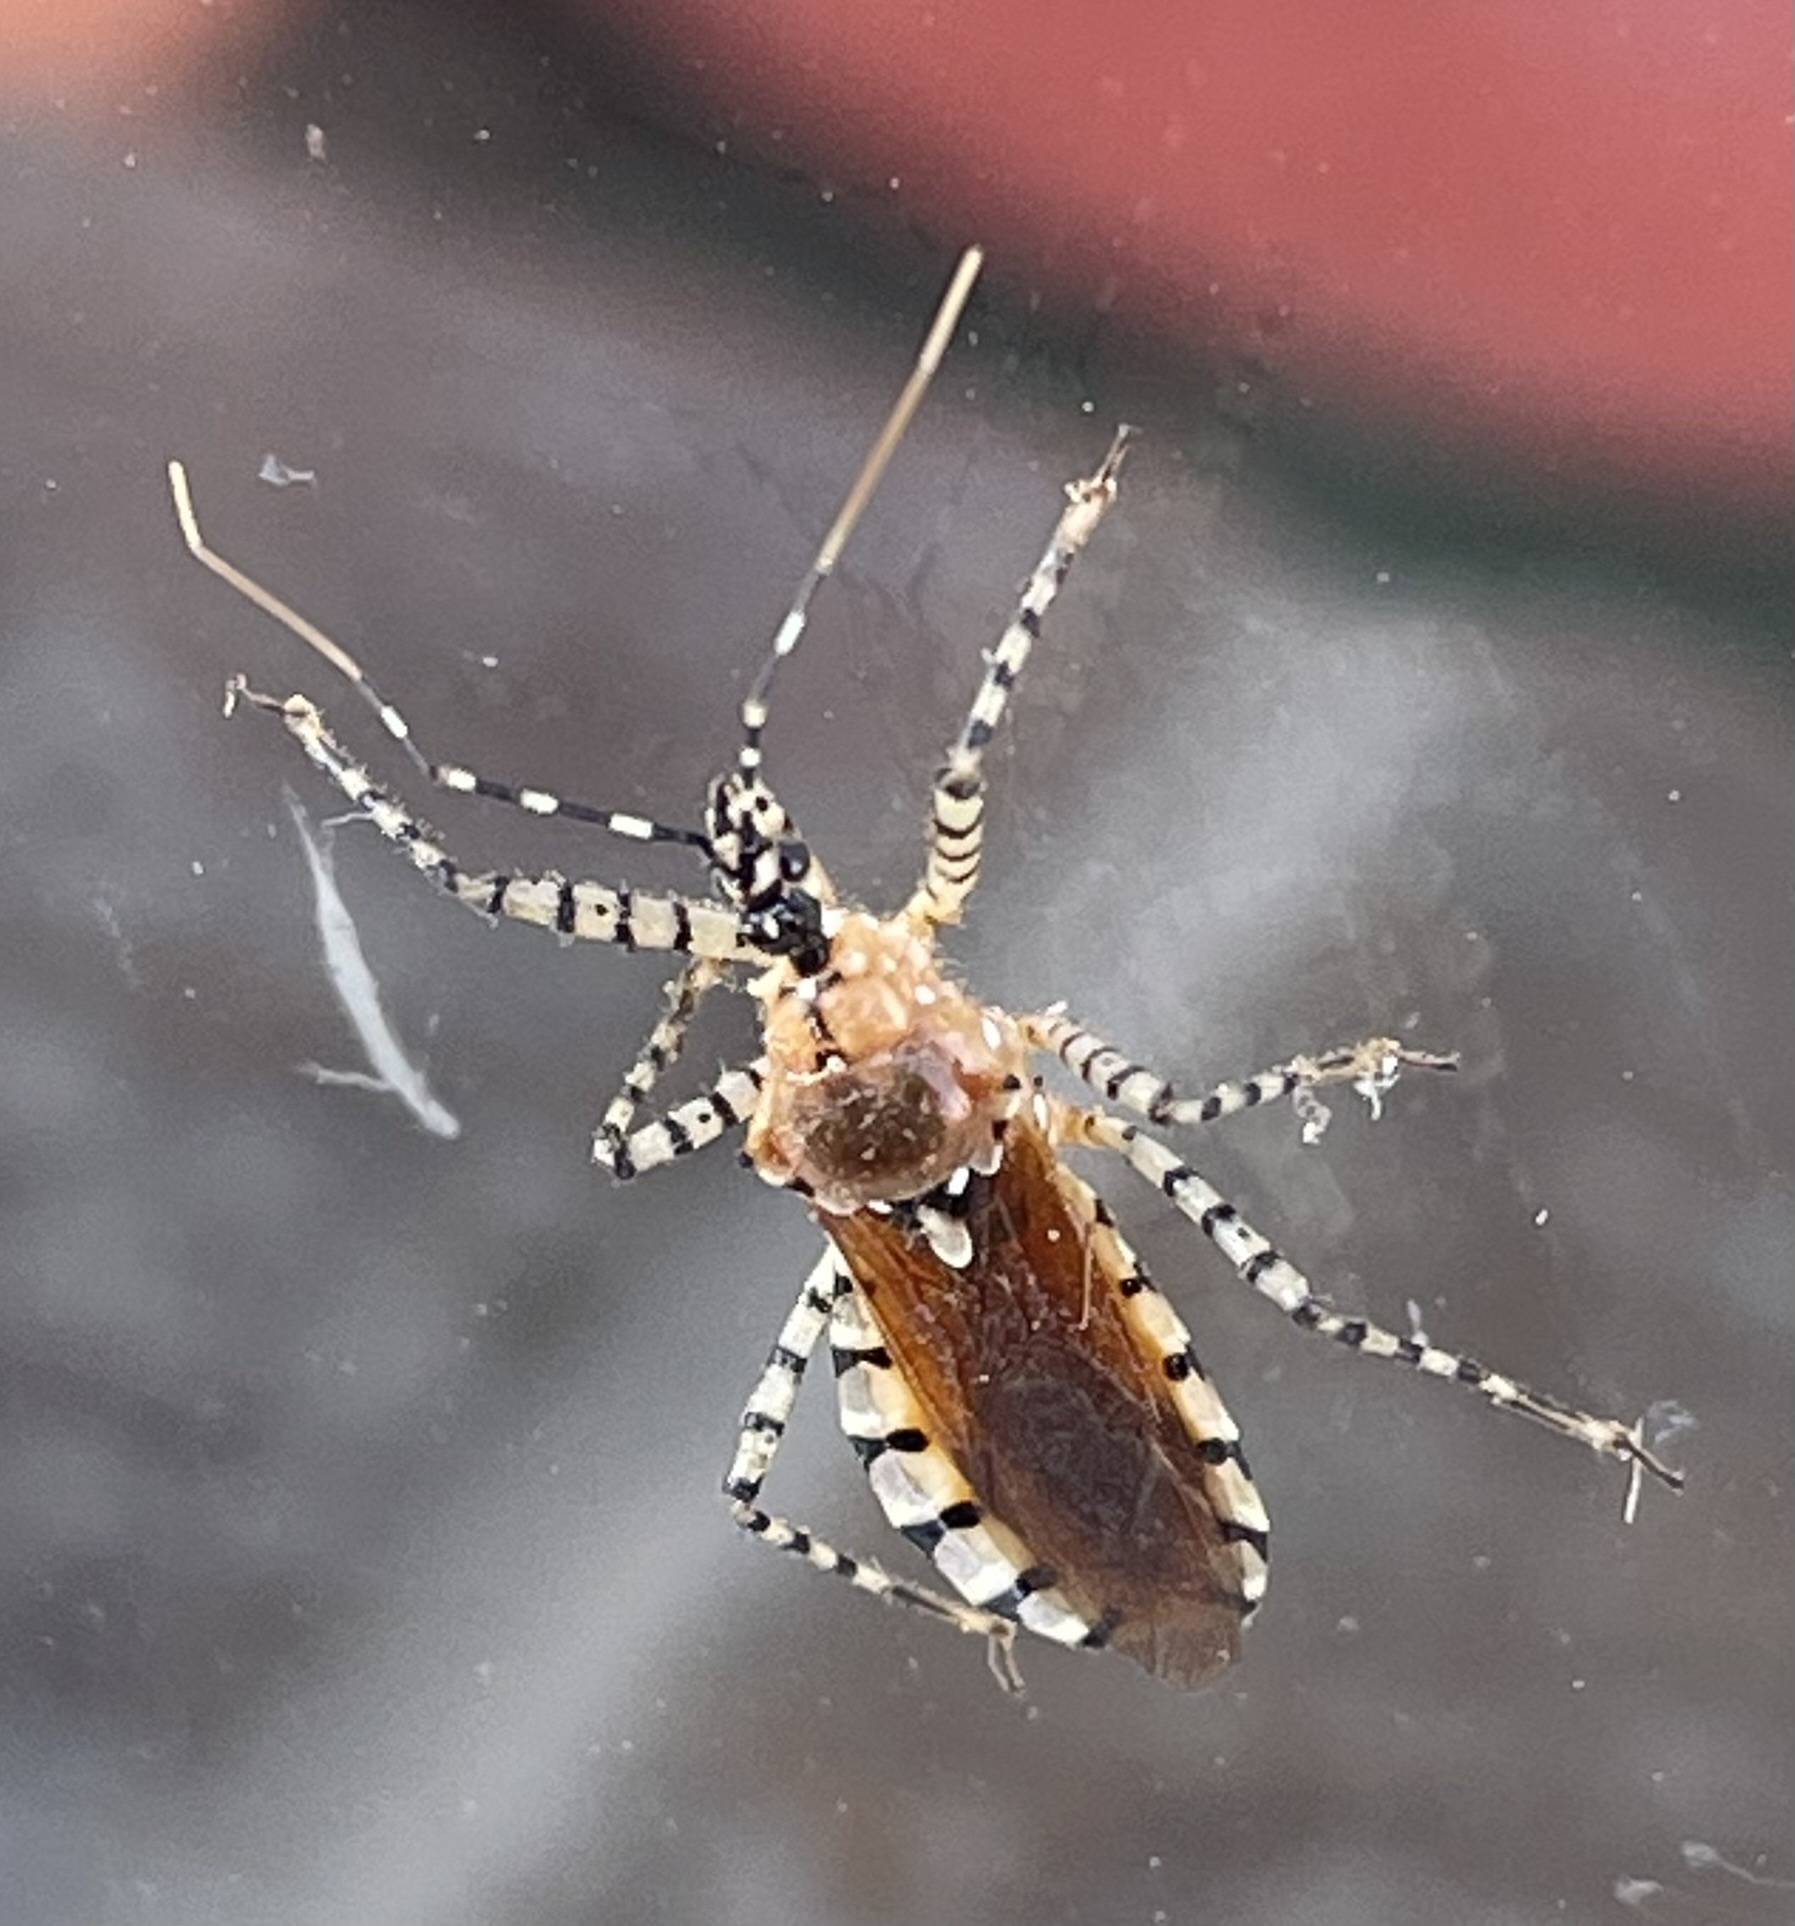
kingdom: Animalia
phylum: Arthropoda
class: Insecta
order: Hemiptera
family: Reduviidae
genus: Pselliopus
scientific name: Pselliopus cinctus
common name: Ringed assassin bug
